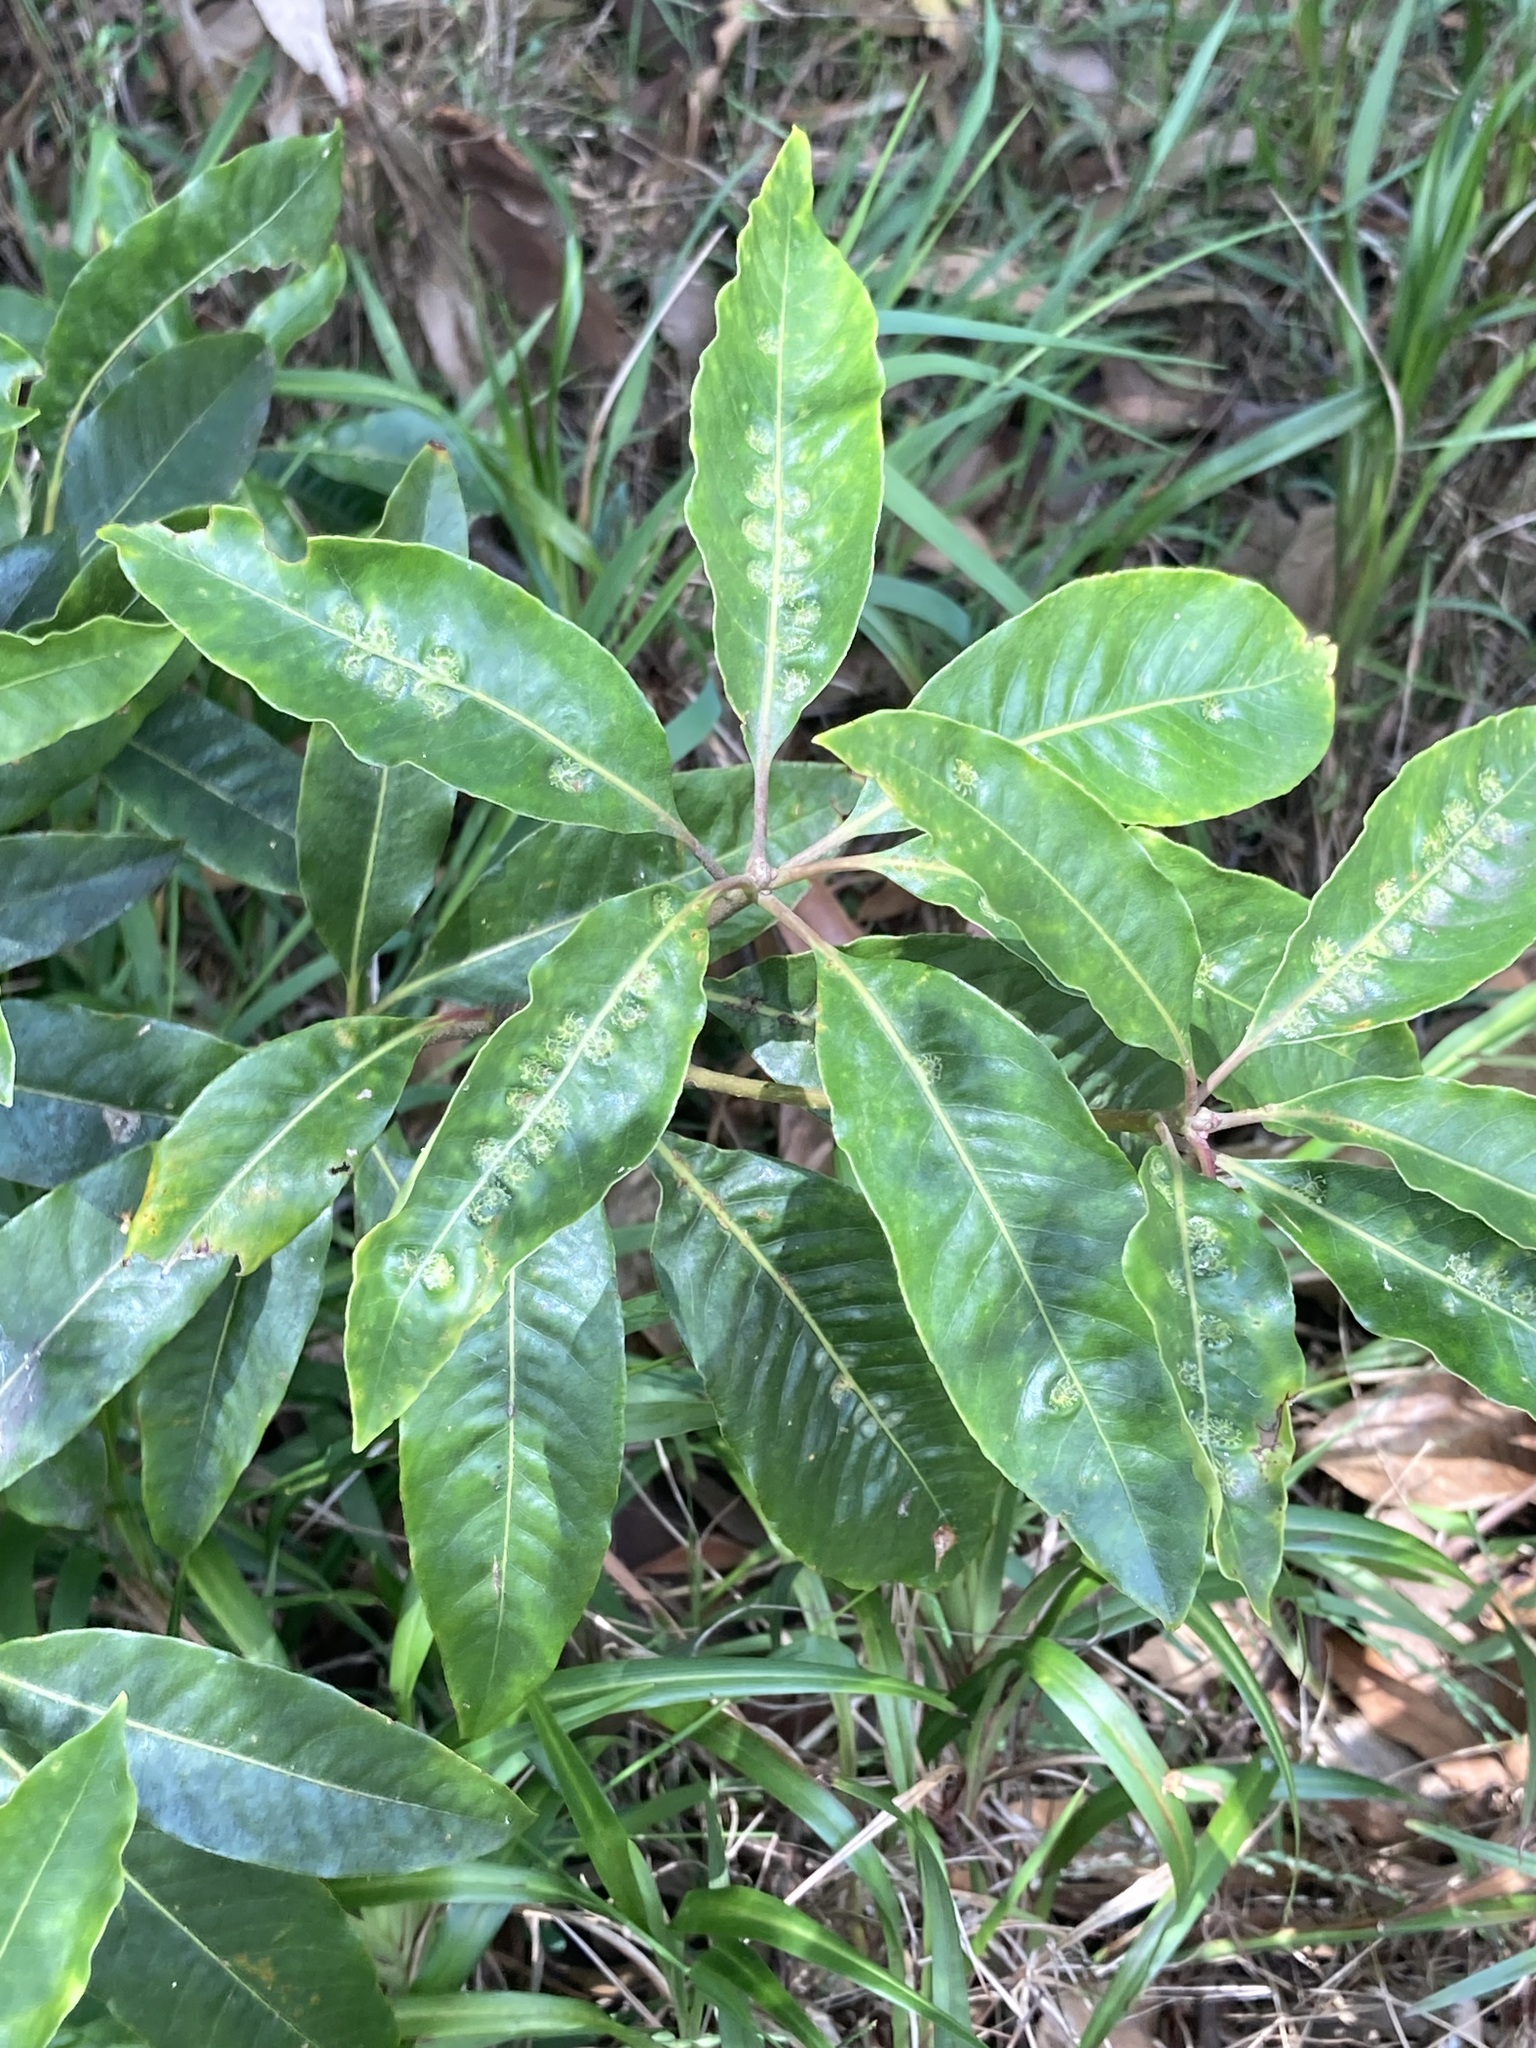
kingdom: Animalia
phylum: Arthropoda
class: Insecta
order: Diptera
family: Agromyzidae
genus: Phytoliriomyza
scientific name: Phytoliriomyza pittosporophylli
